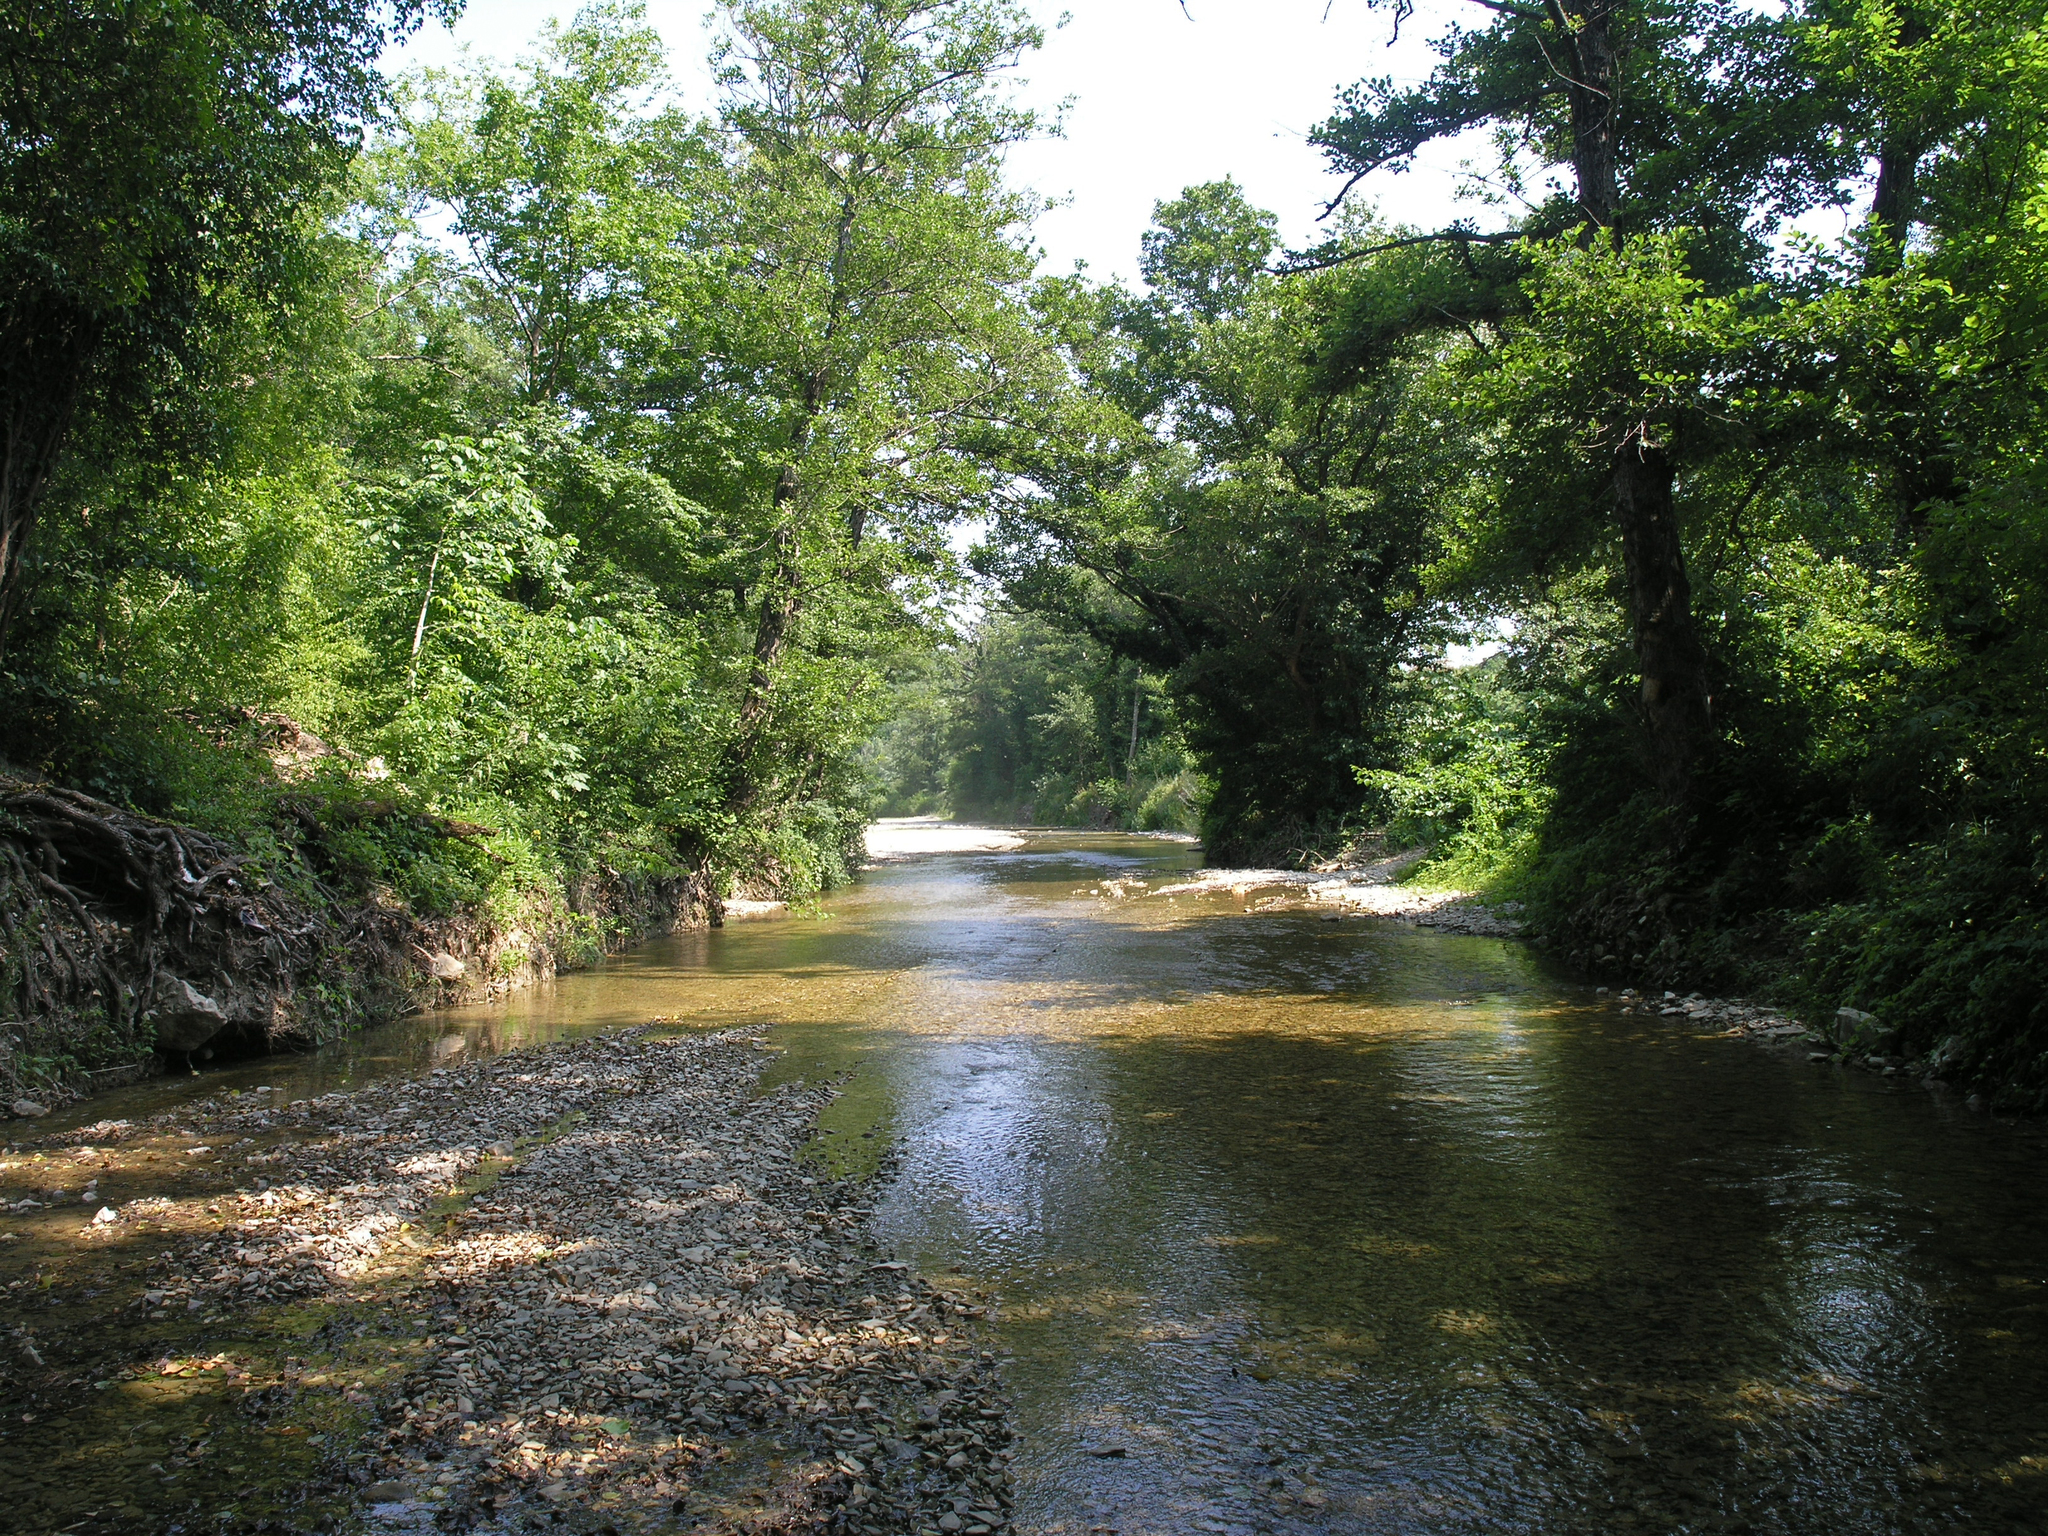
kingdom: Plantae
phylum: Tracheophyta
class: Magnoliopsida
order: Fagales
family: Betulaceae
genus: Alnus
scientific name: Alnus glutinosa
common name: Black alder
